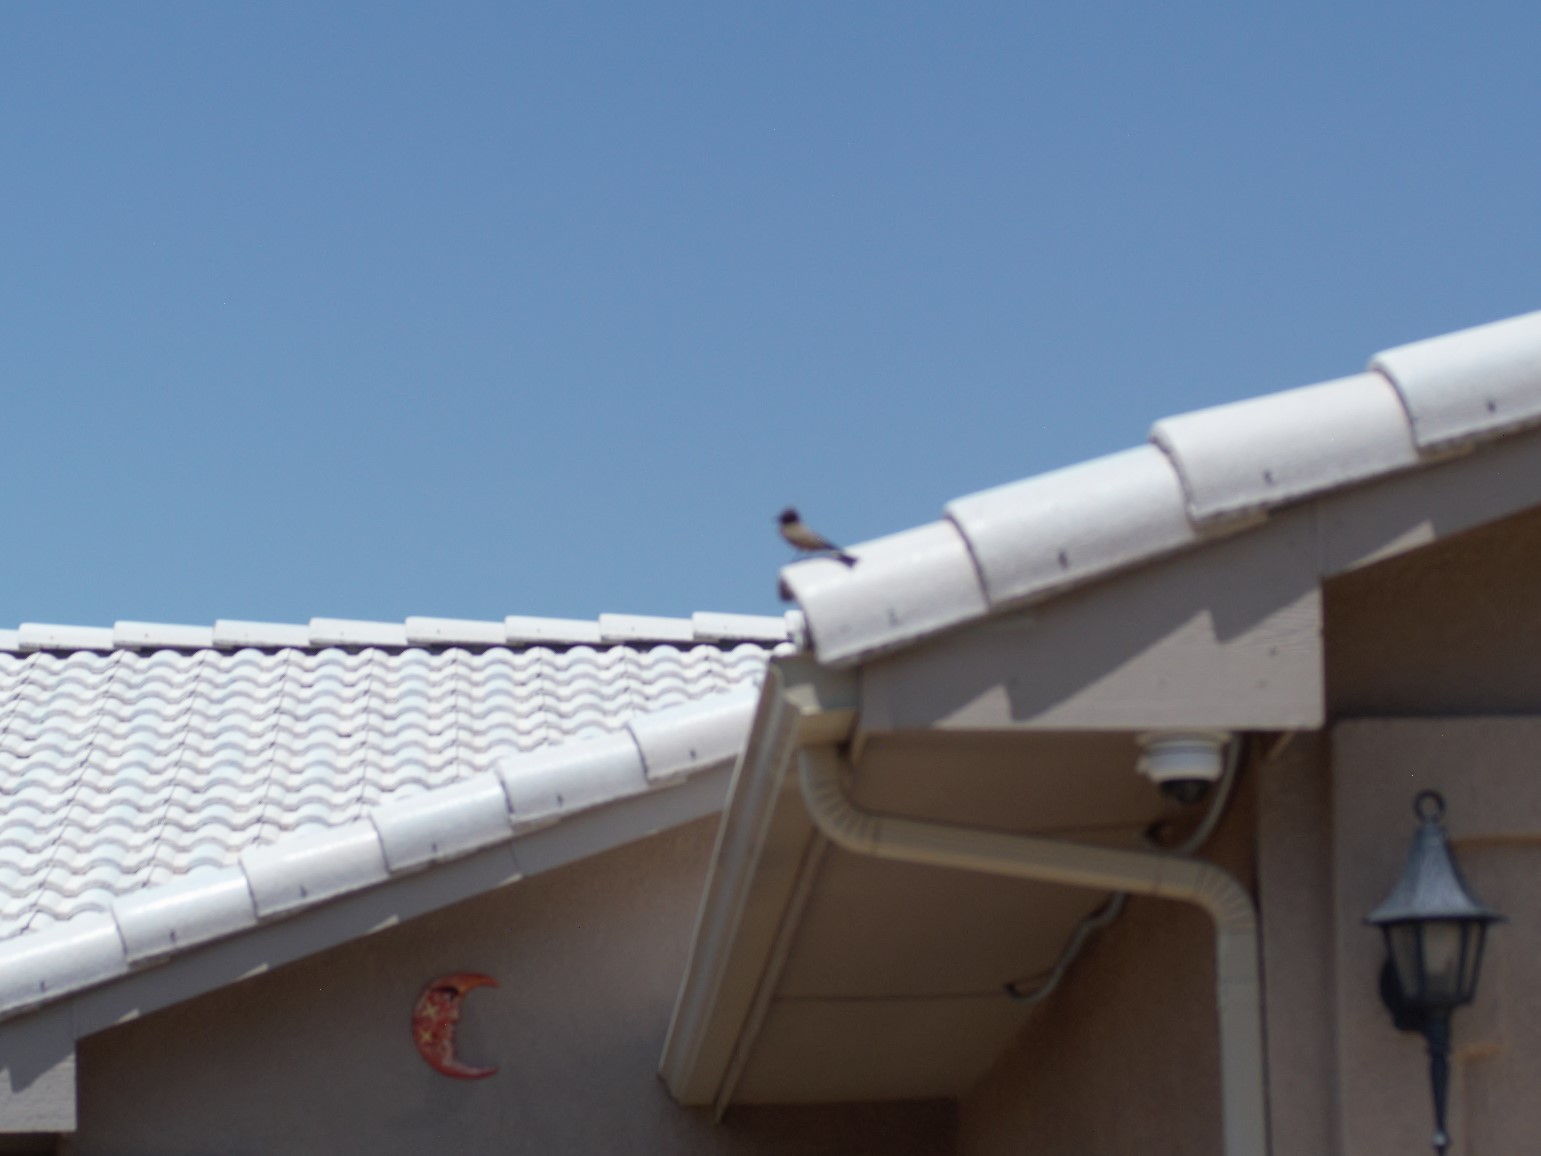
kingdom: Animalia
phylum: Chordata
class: Aves
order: Passeriformes
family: Tyrannidae
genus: Sayornis
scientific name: Sayornis saya
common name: Say's phoebe
